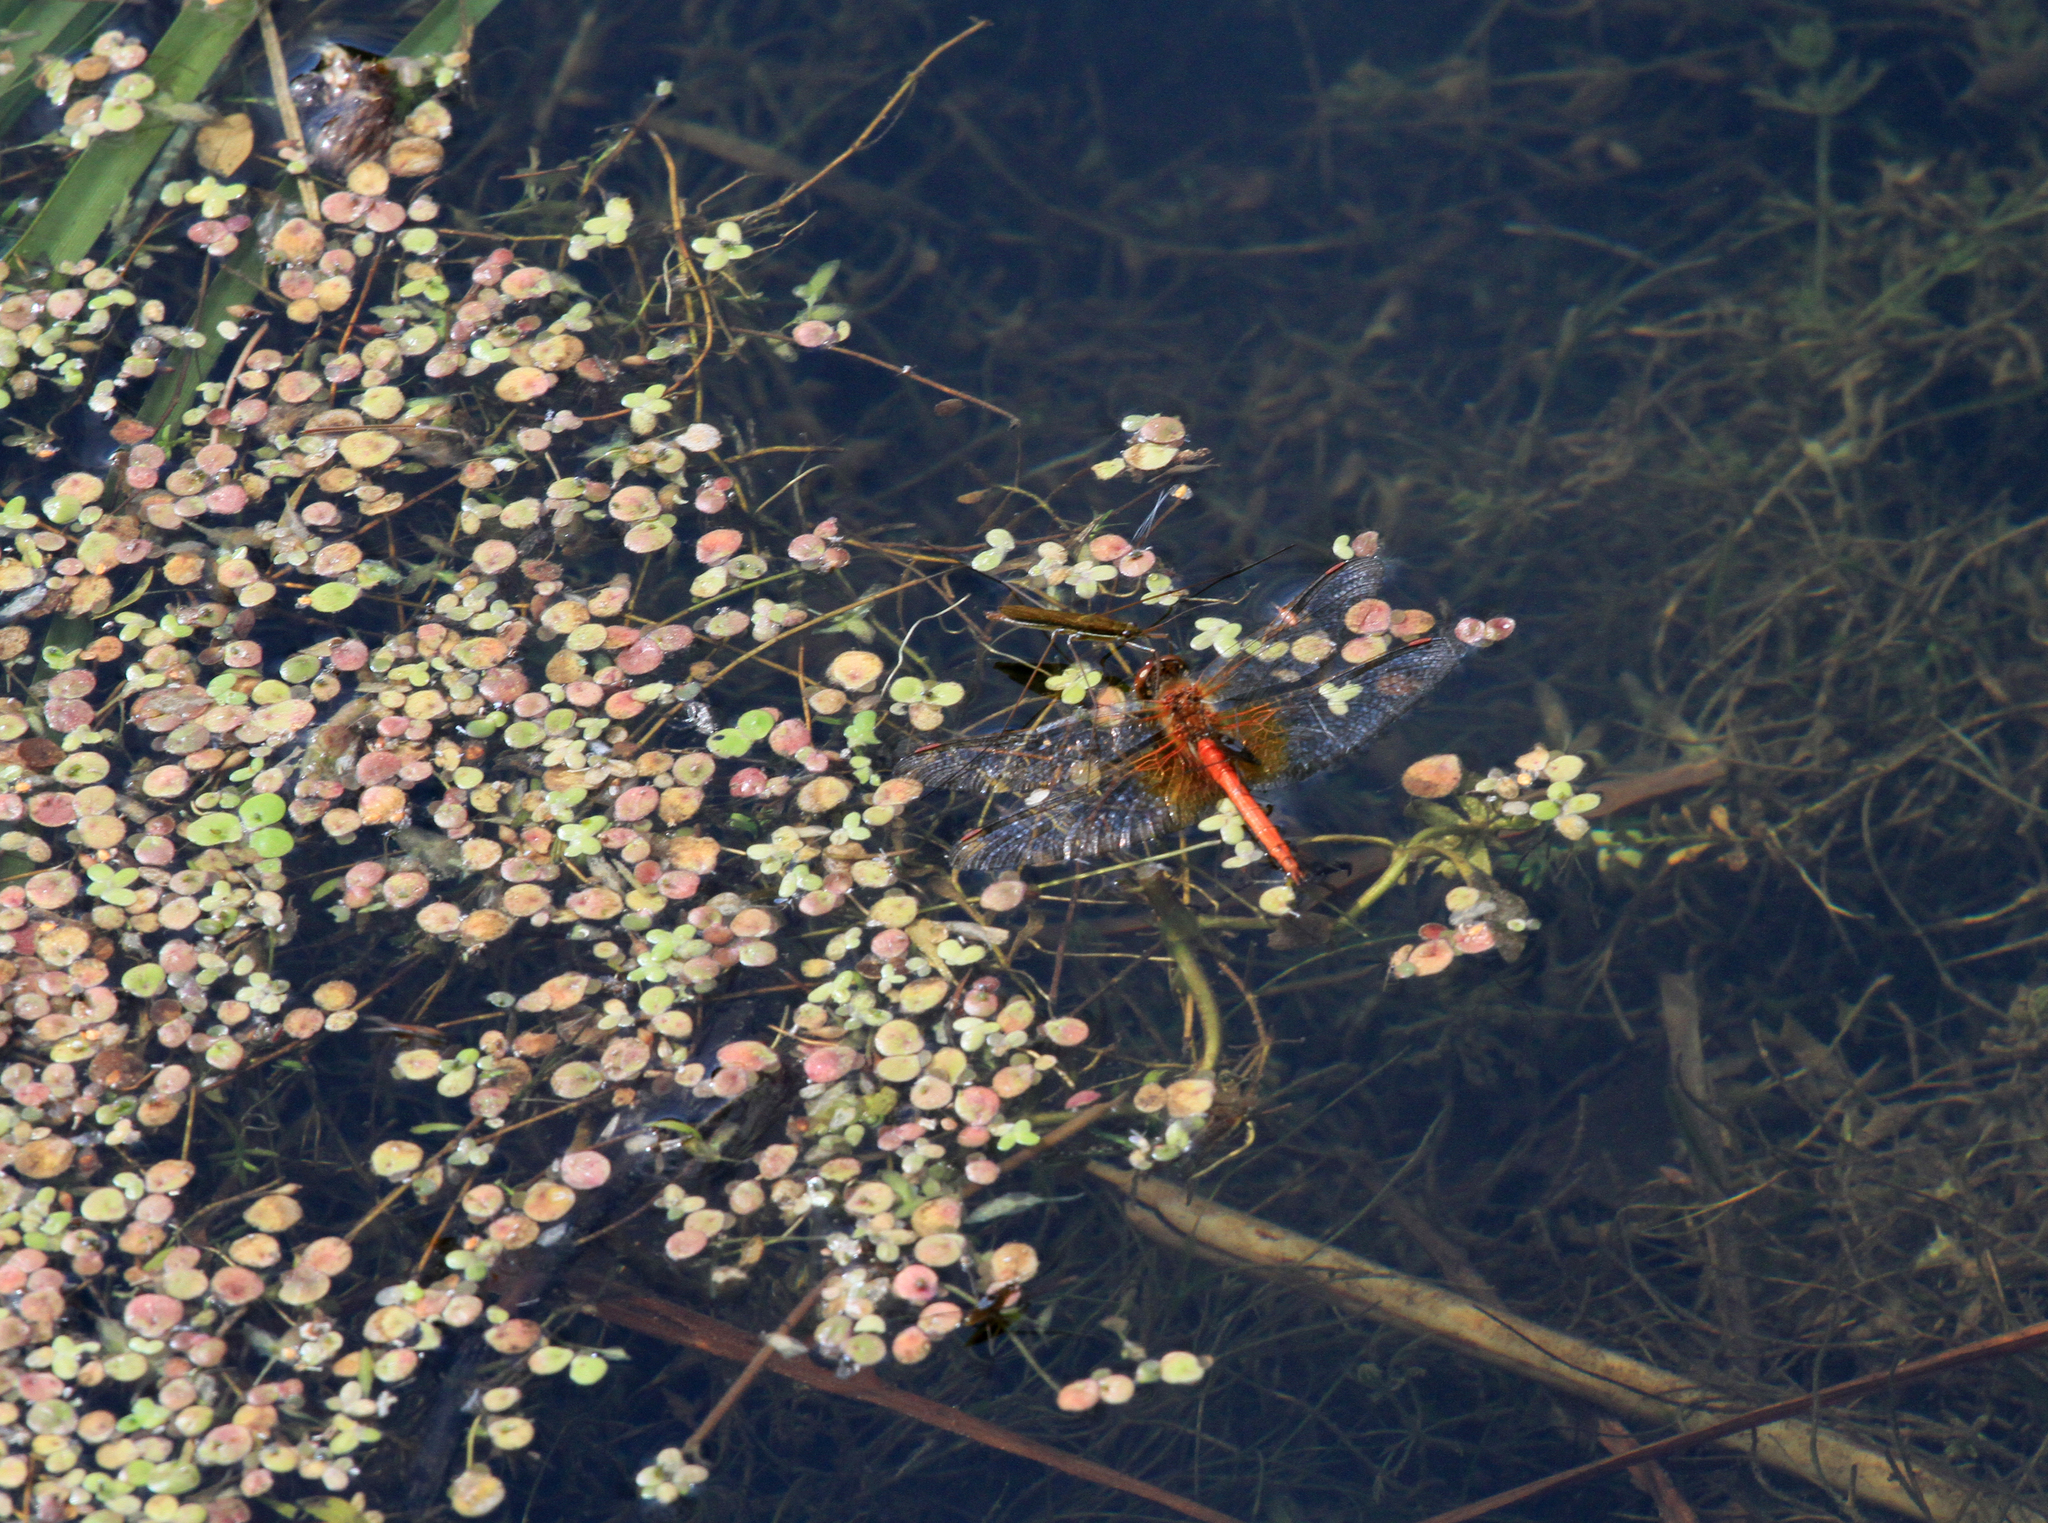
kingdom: Plantae
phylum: Tracheophyta
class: Liliopsida
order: Alismatales
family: Araceae
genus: Spirodela
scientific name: Spirodela polyrhiza
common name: Great duckweed
